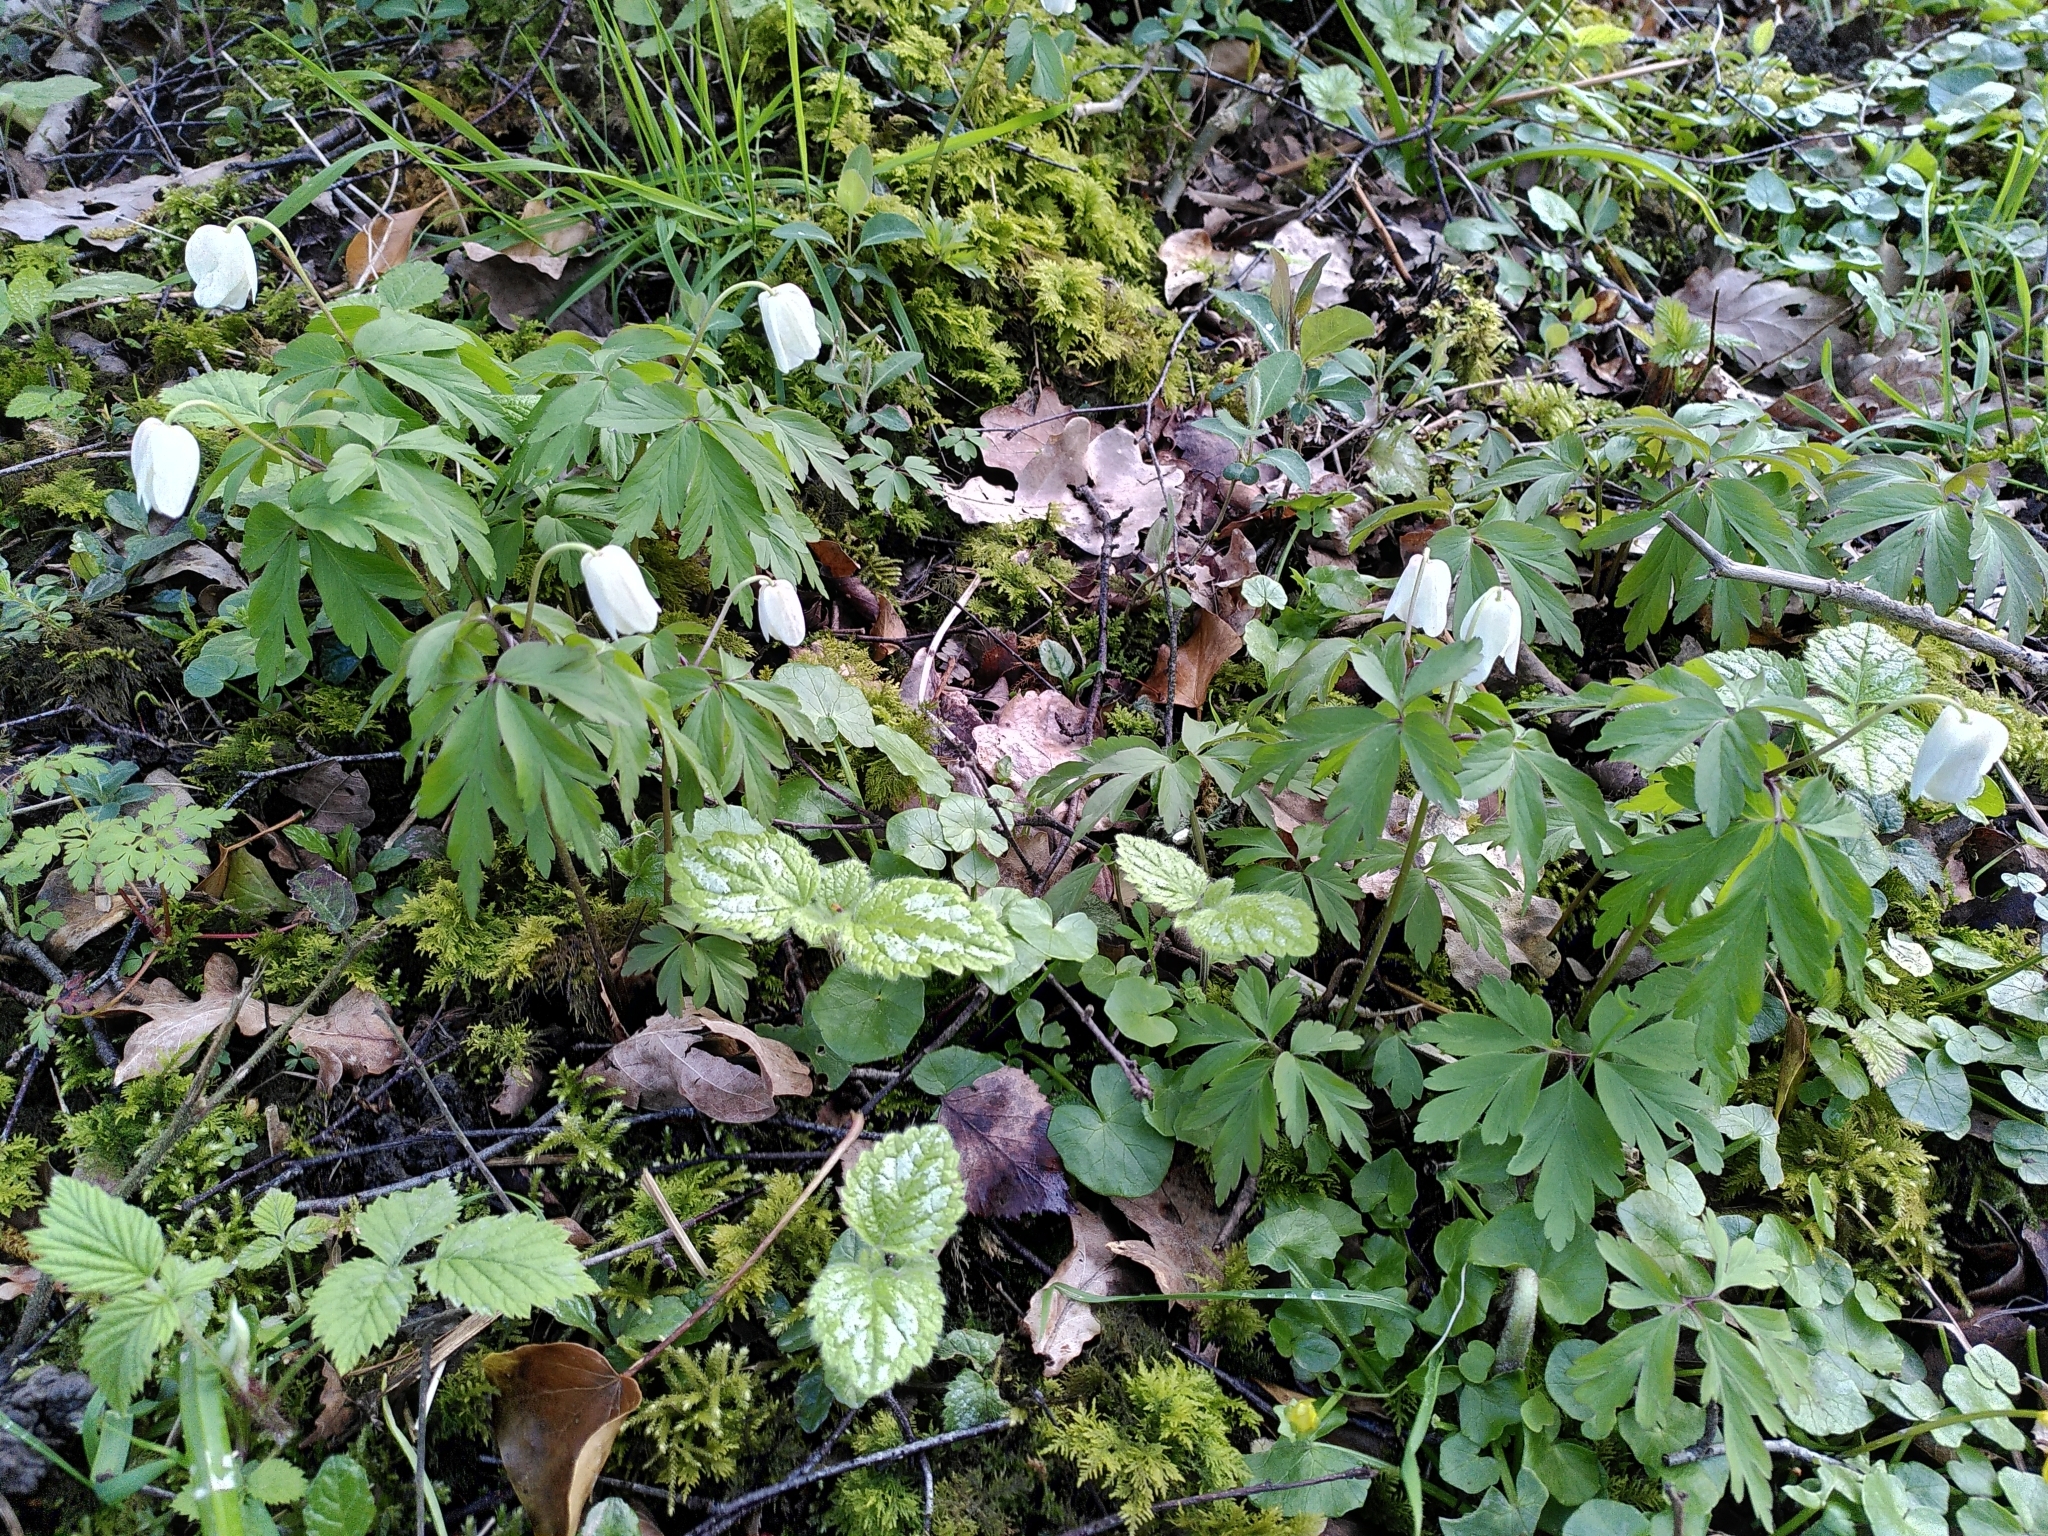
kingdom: Plantae
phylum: Tracheophyta
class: Magnoliopsida
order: Ranunculales
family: Ranunculaceae
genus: Anemone
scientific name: Anemone nemorosa
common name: Wood anemone
